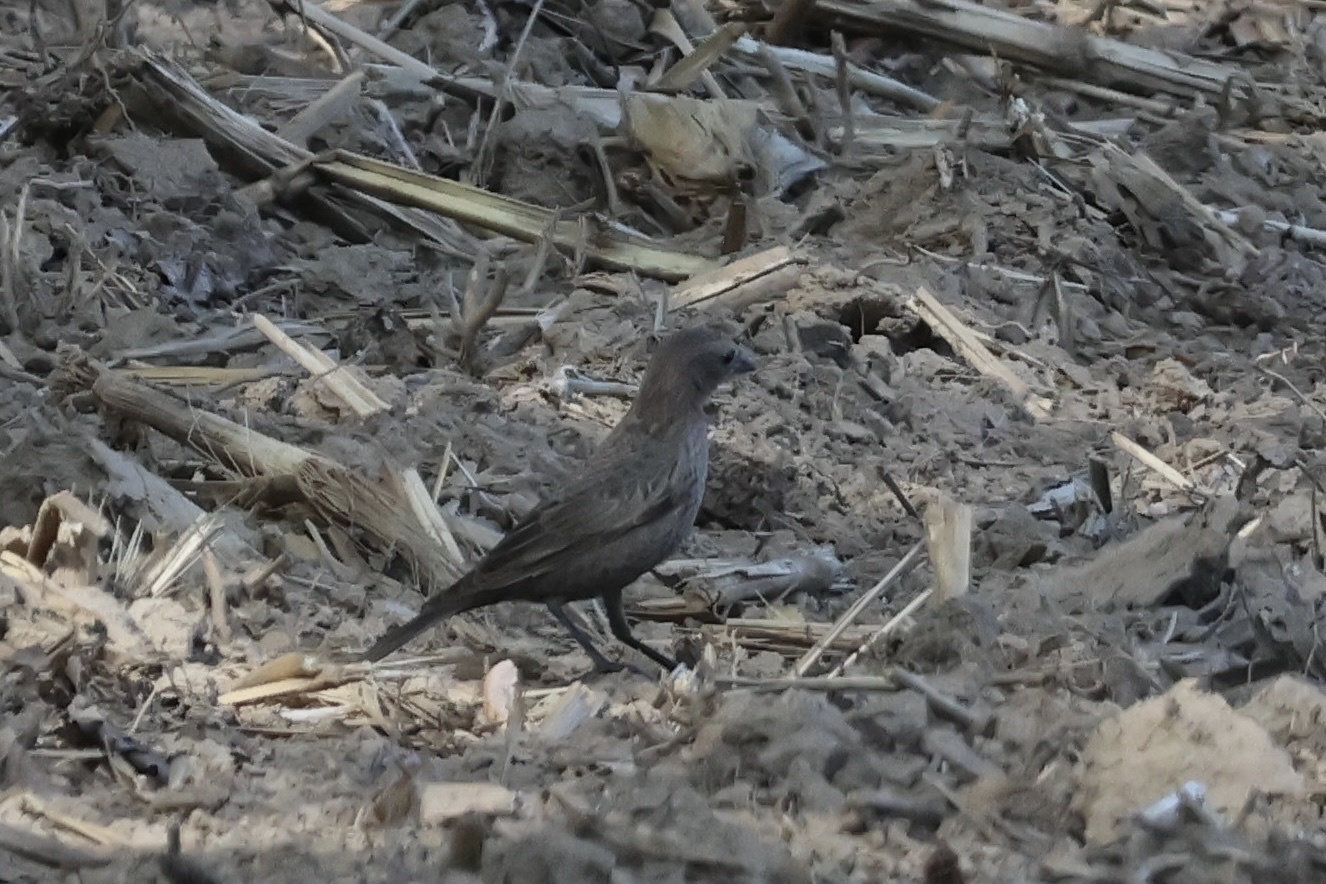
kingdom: Animalia
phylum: Chordata
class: Aves
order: Passeriformes
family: Icteridae
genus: Molothrus
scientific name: Molothrus ater
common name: Brown-headed cowbird
